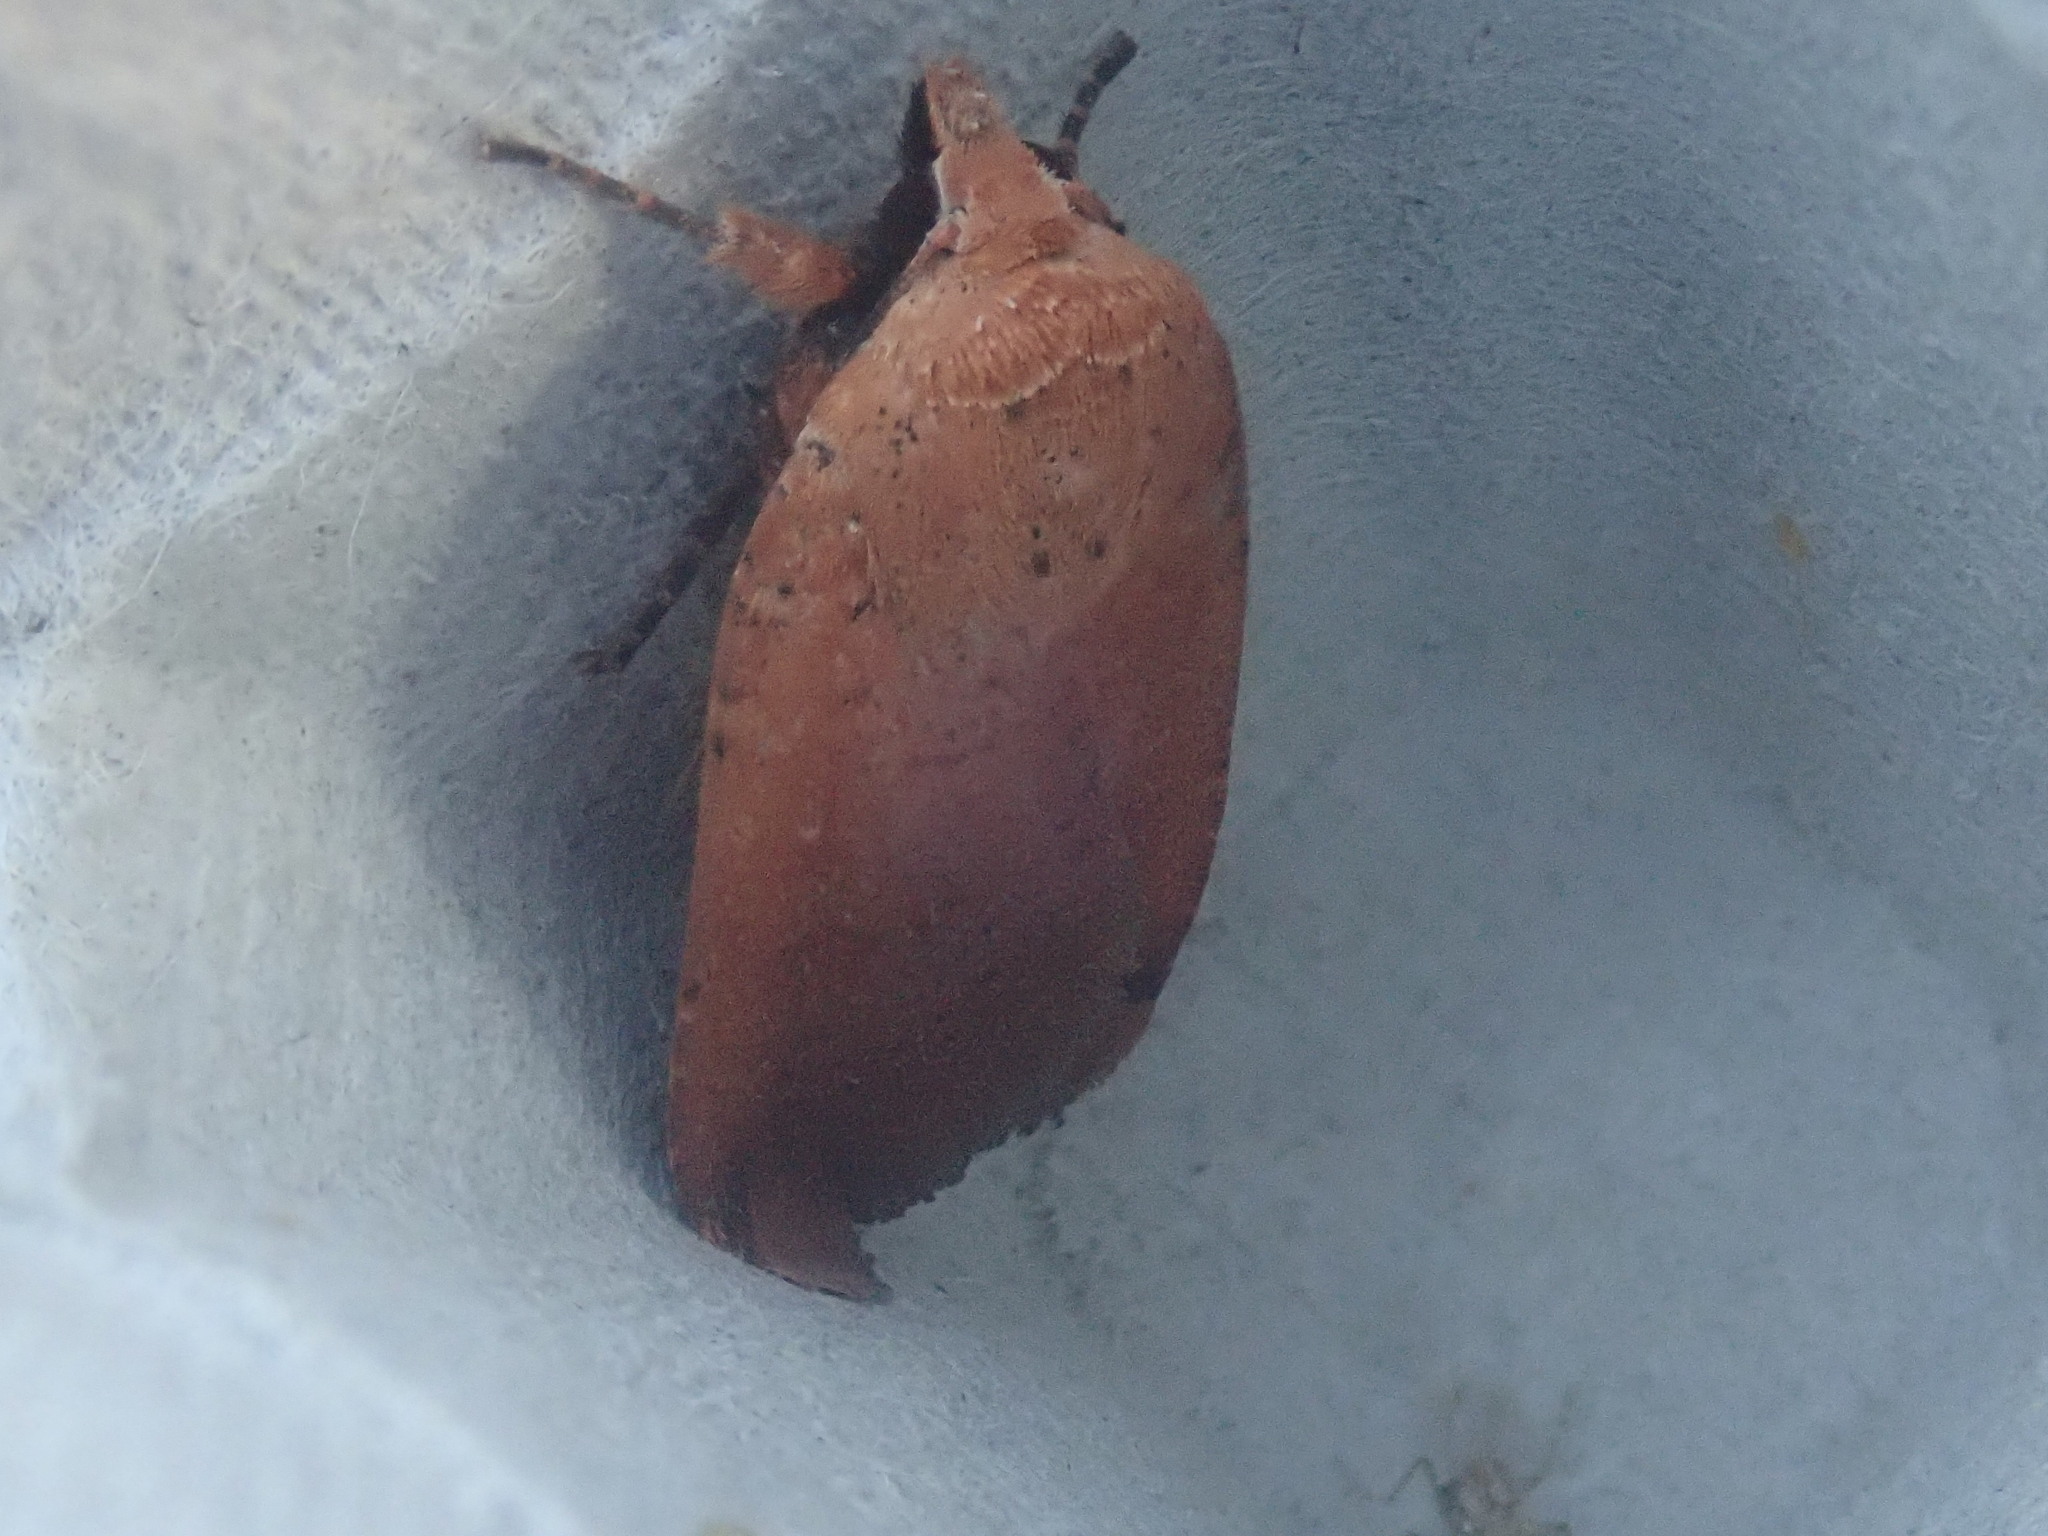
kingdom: Animalia
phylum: Arthropoda
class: Insecta
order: Lepidoptera
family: Noctuidae
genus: Noctua
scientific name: Noctua pronuba
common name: Large yellow underwing
